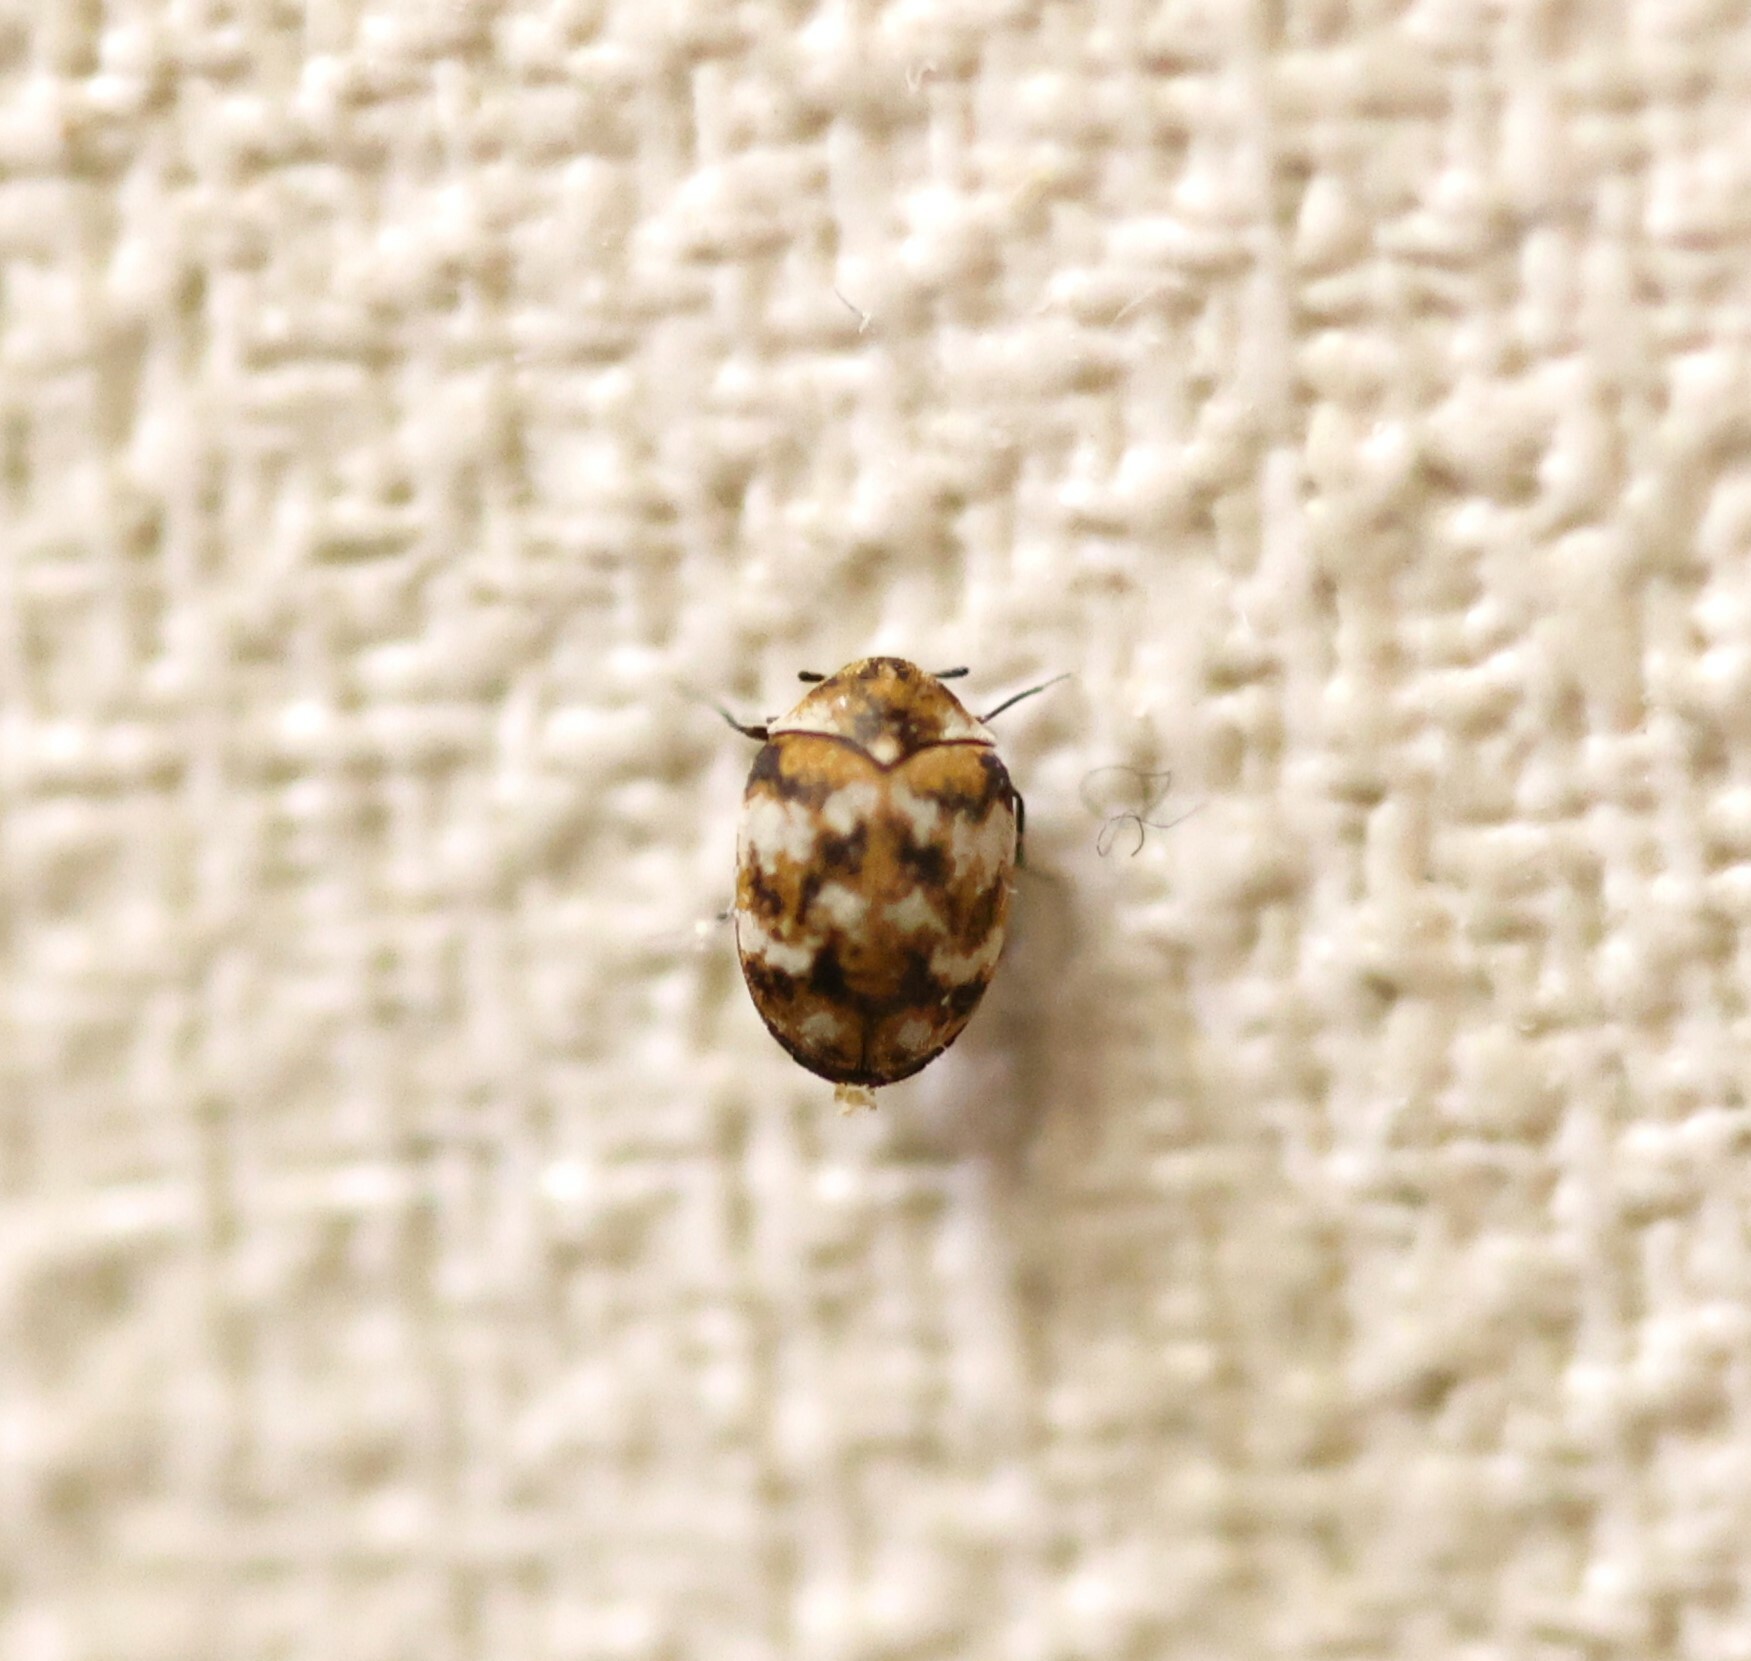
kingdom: Animalia
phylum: Arthropoda
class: Insecta
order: Coleoptera
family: Dermestidae
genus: Anthrenus
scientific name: Anthrenus verbasci
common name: Varied carpet beetle
